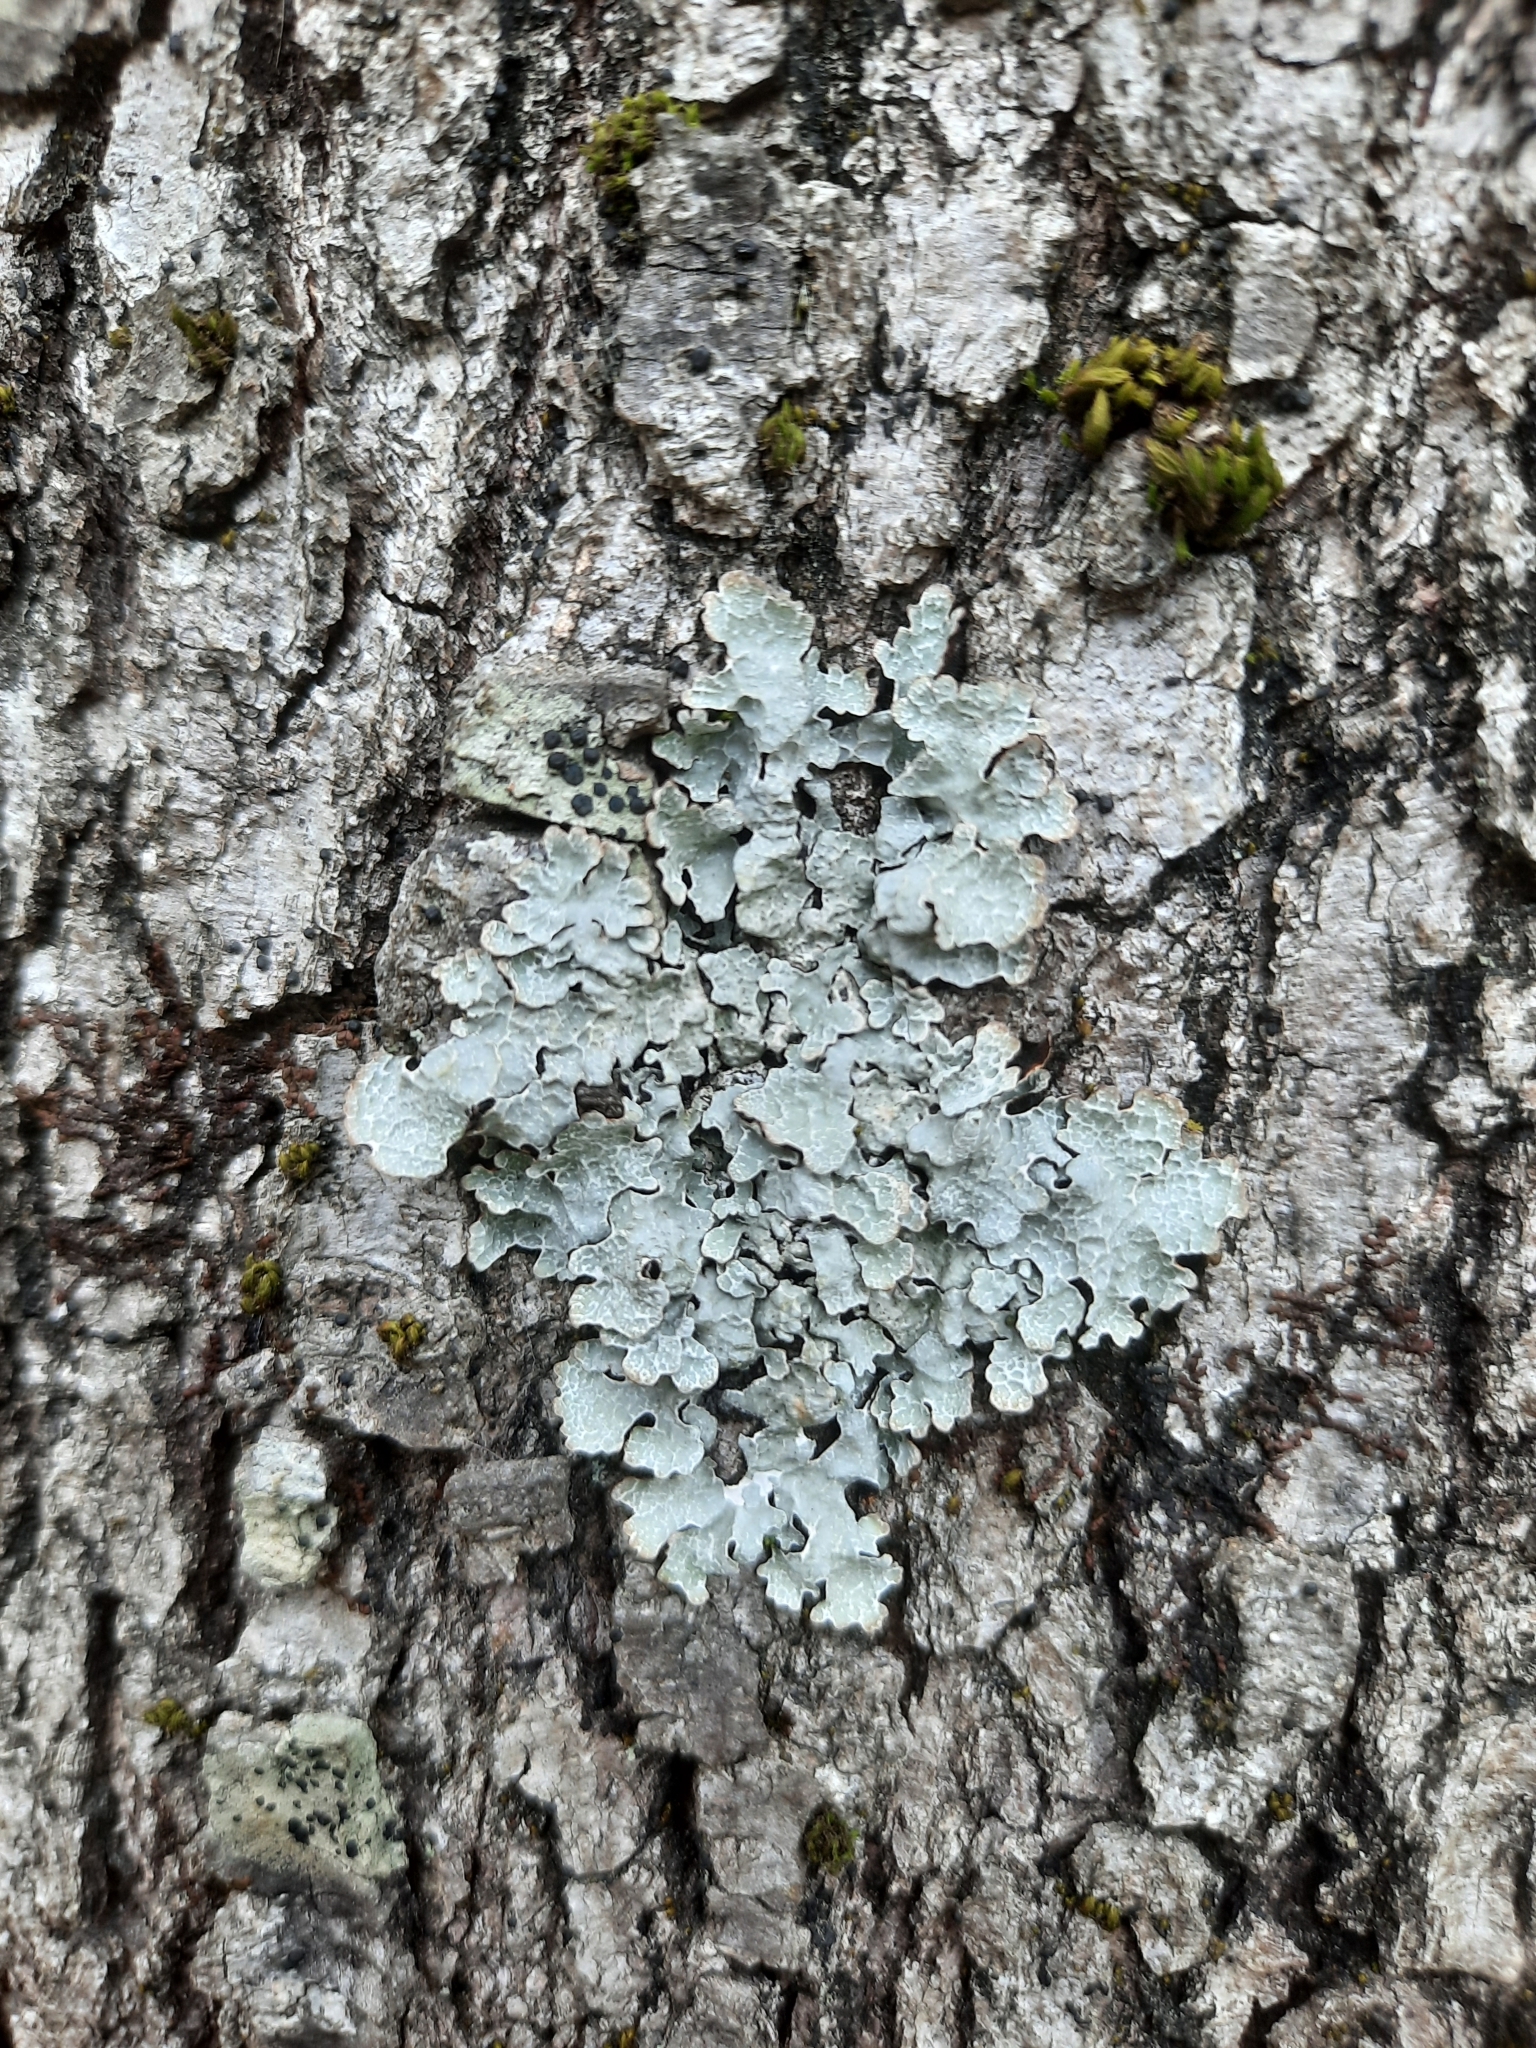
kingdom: Fungi
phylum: Ascomycota
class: Lecanoromycetes
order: Lecanorales
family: Parmeliaceae
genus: Parmelia
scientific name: Parmelia sulcata
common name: Netted shield lichen
